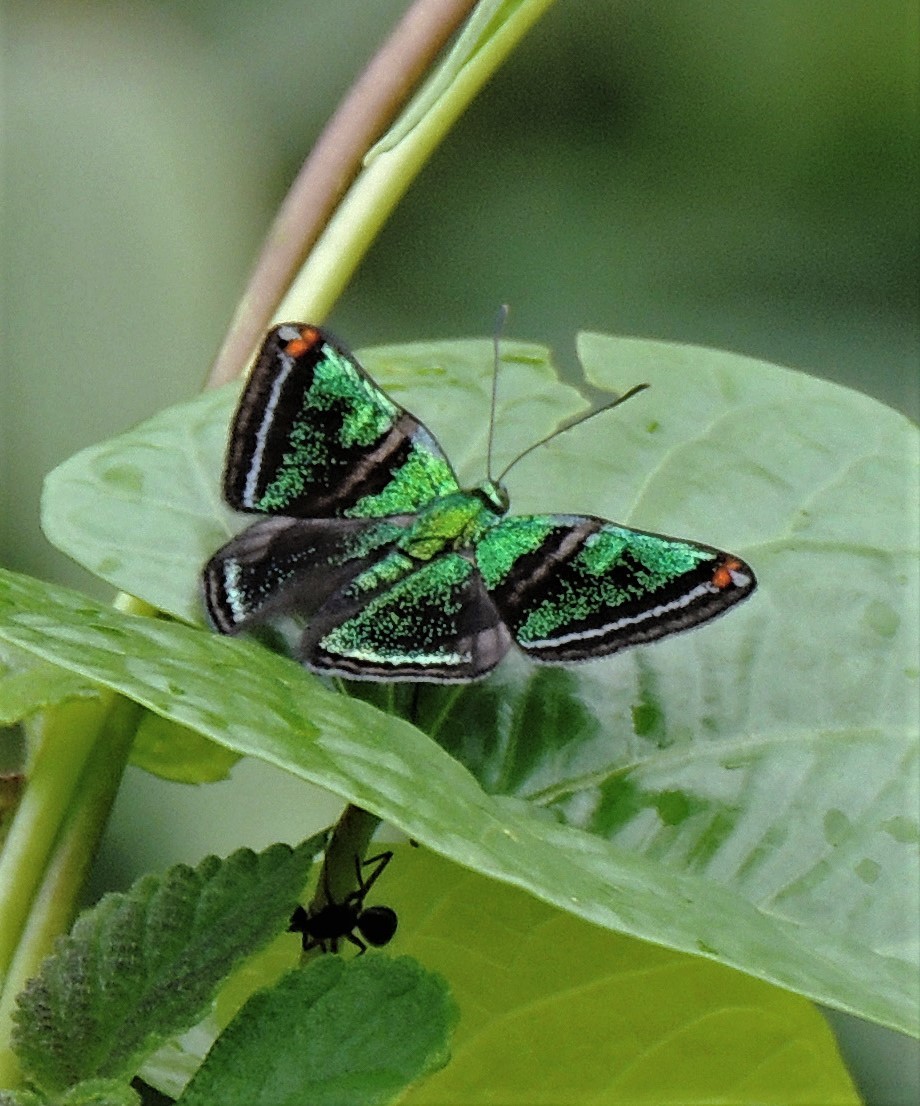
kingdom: Animalia
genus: Caria
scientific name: Caria plutargus
